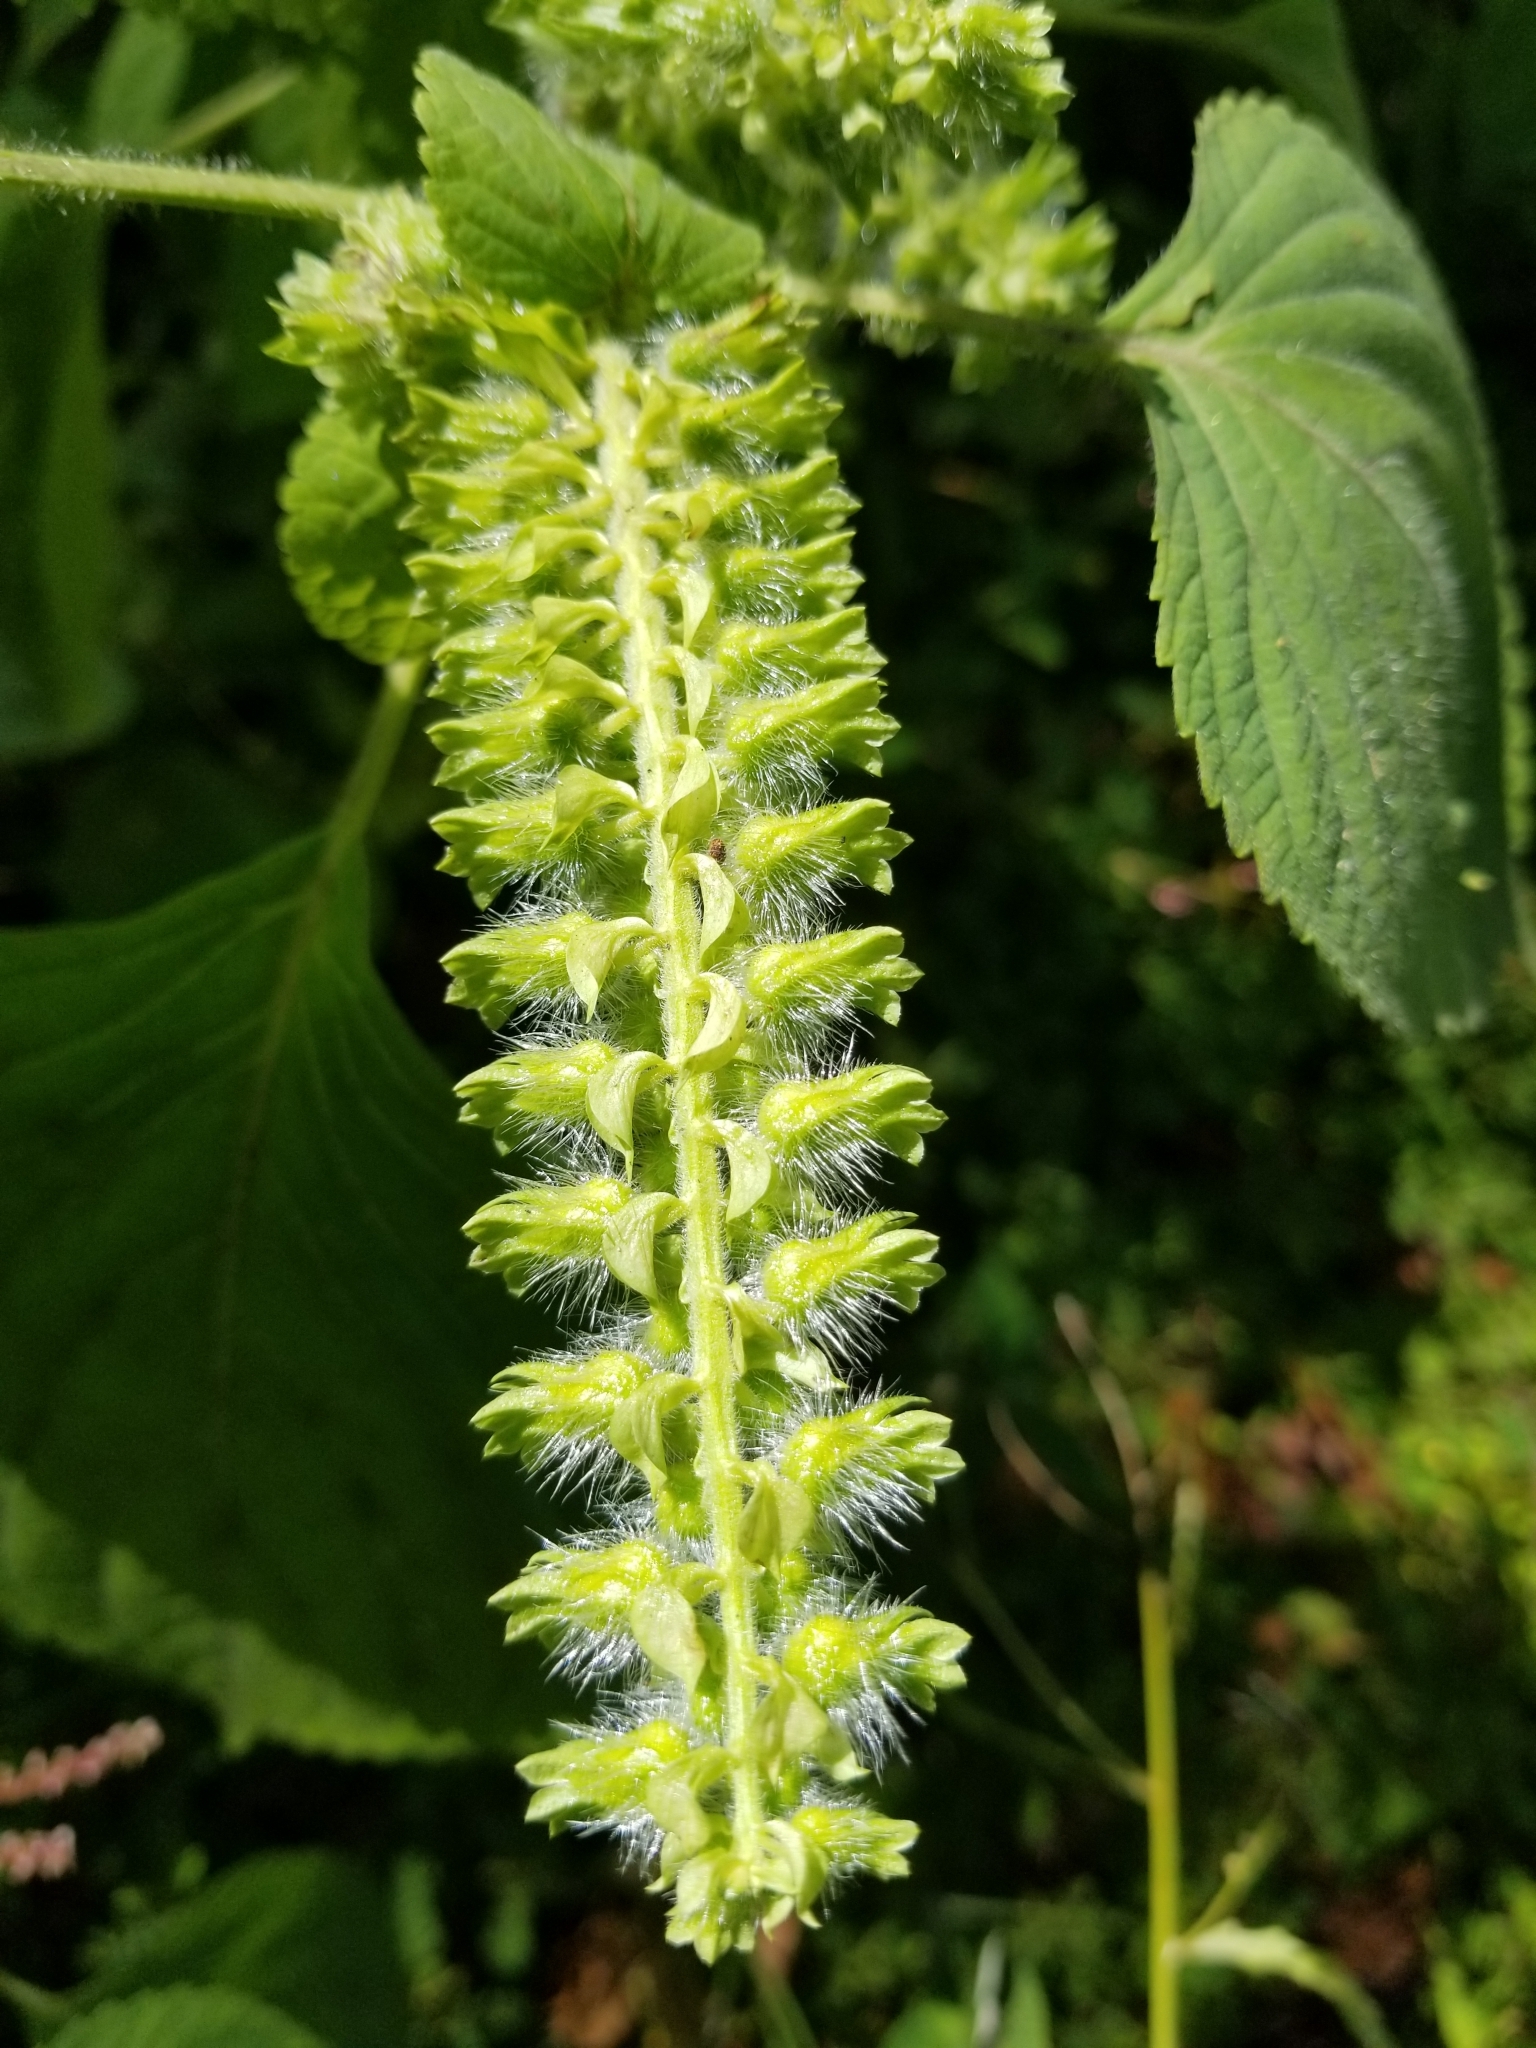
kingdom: Plantae
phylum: Tracheophyta
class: Magnoliopsida
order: Lamiales
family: Lamiaceae
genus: Perilla
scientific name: Perilla frutescens
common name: Perilla
